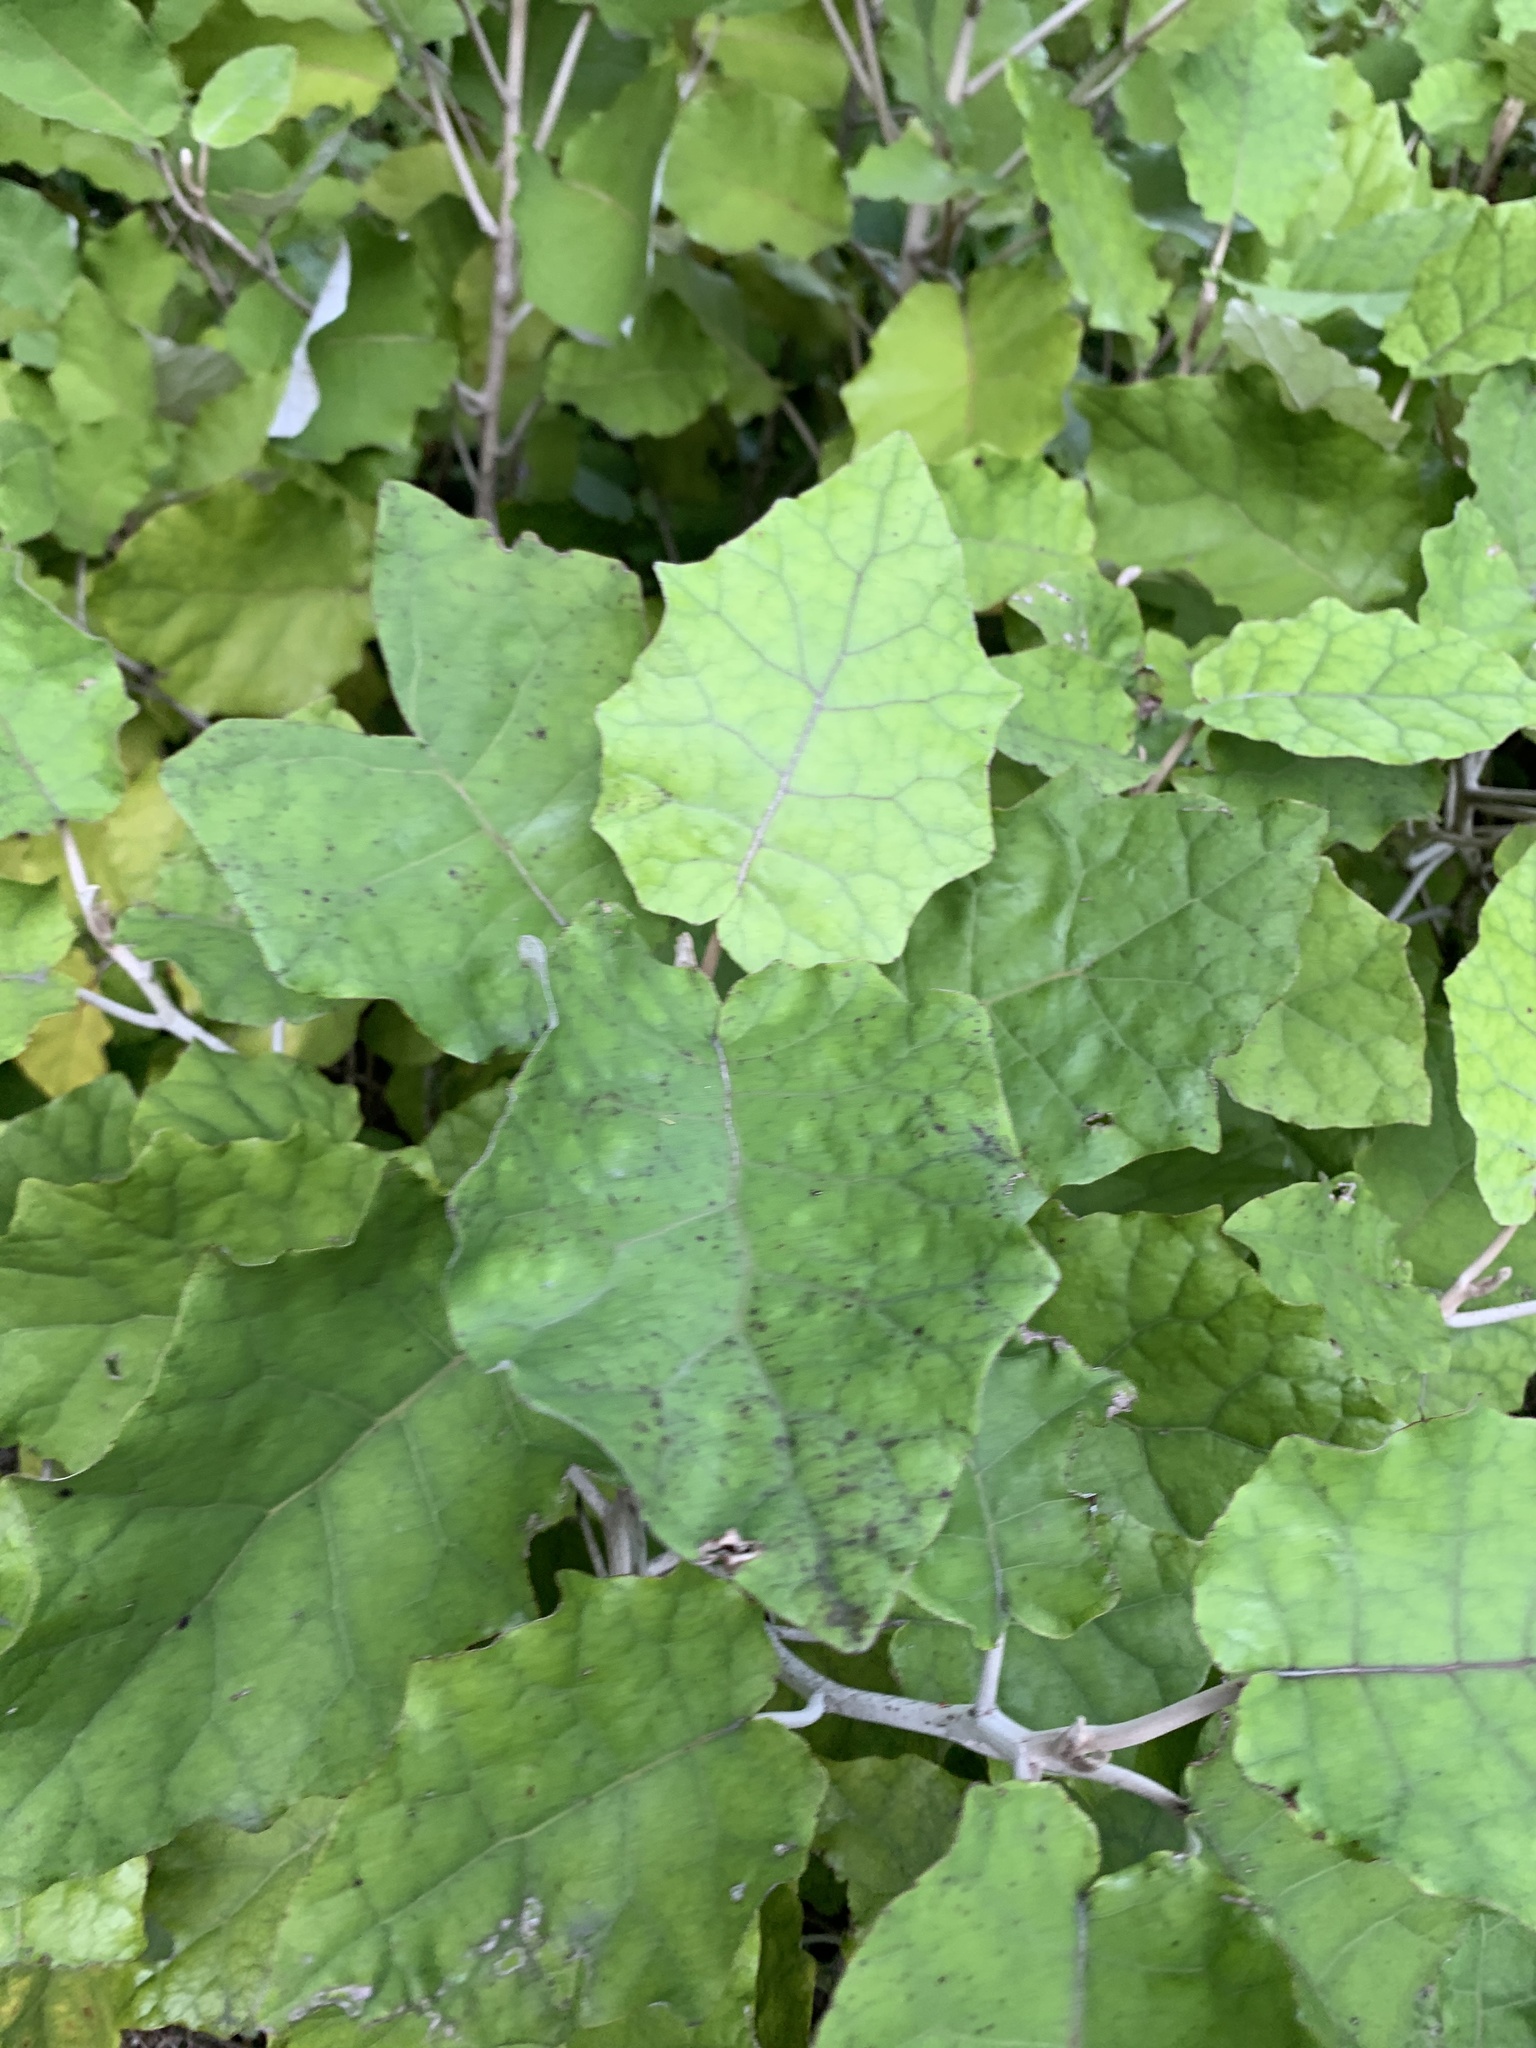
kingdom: Plantae
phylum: Tracheophyta
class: Magnoliopsida
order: Asterales
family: Asteraceae
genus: Brachyglottis
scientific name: Brachyglottis repanda
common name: Hedge ragwort
